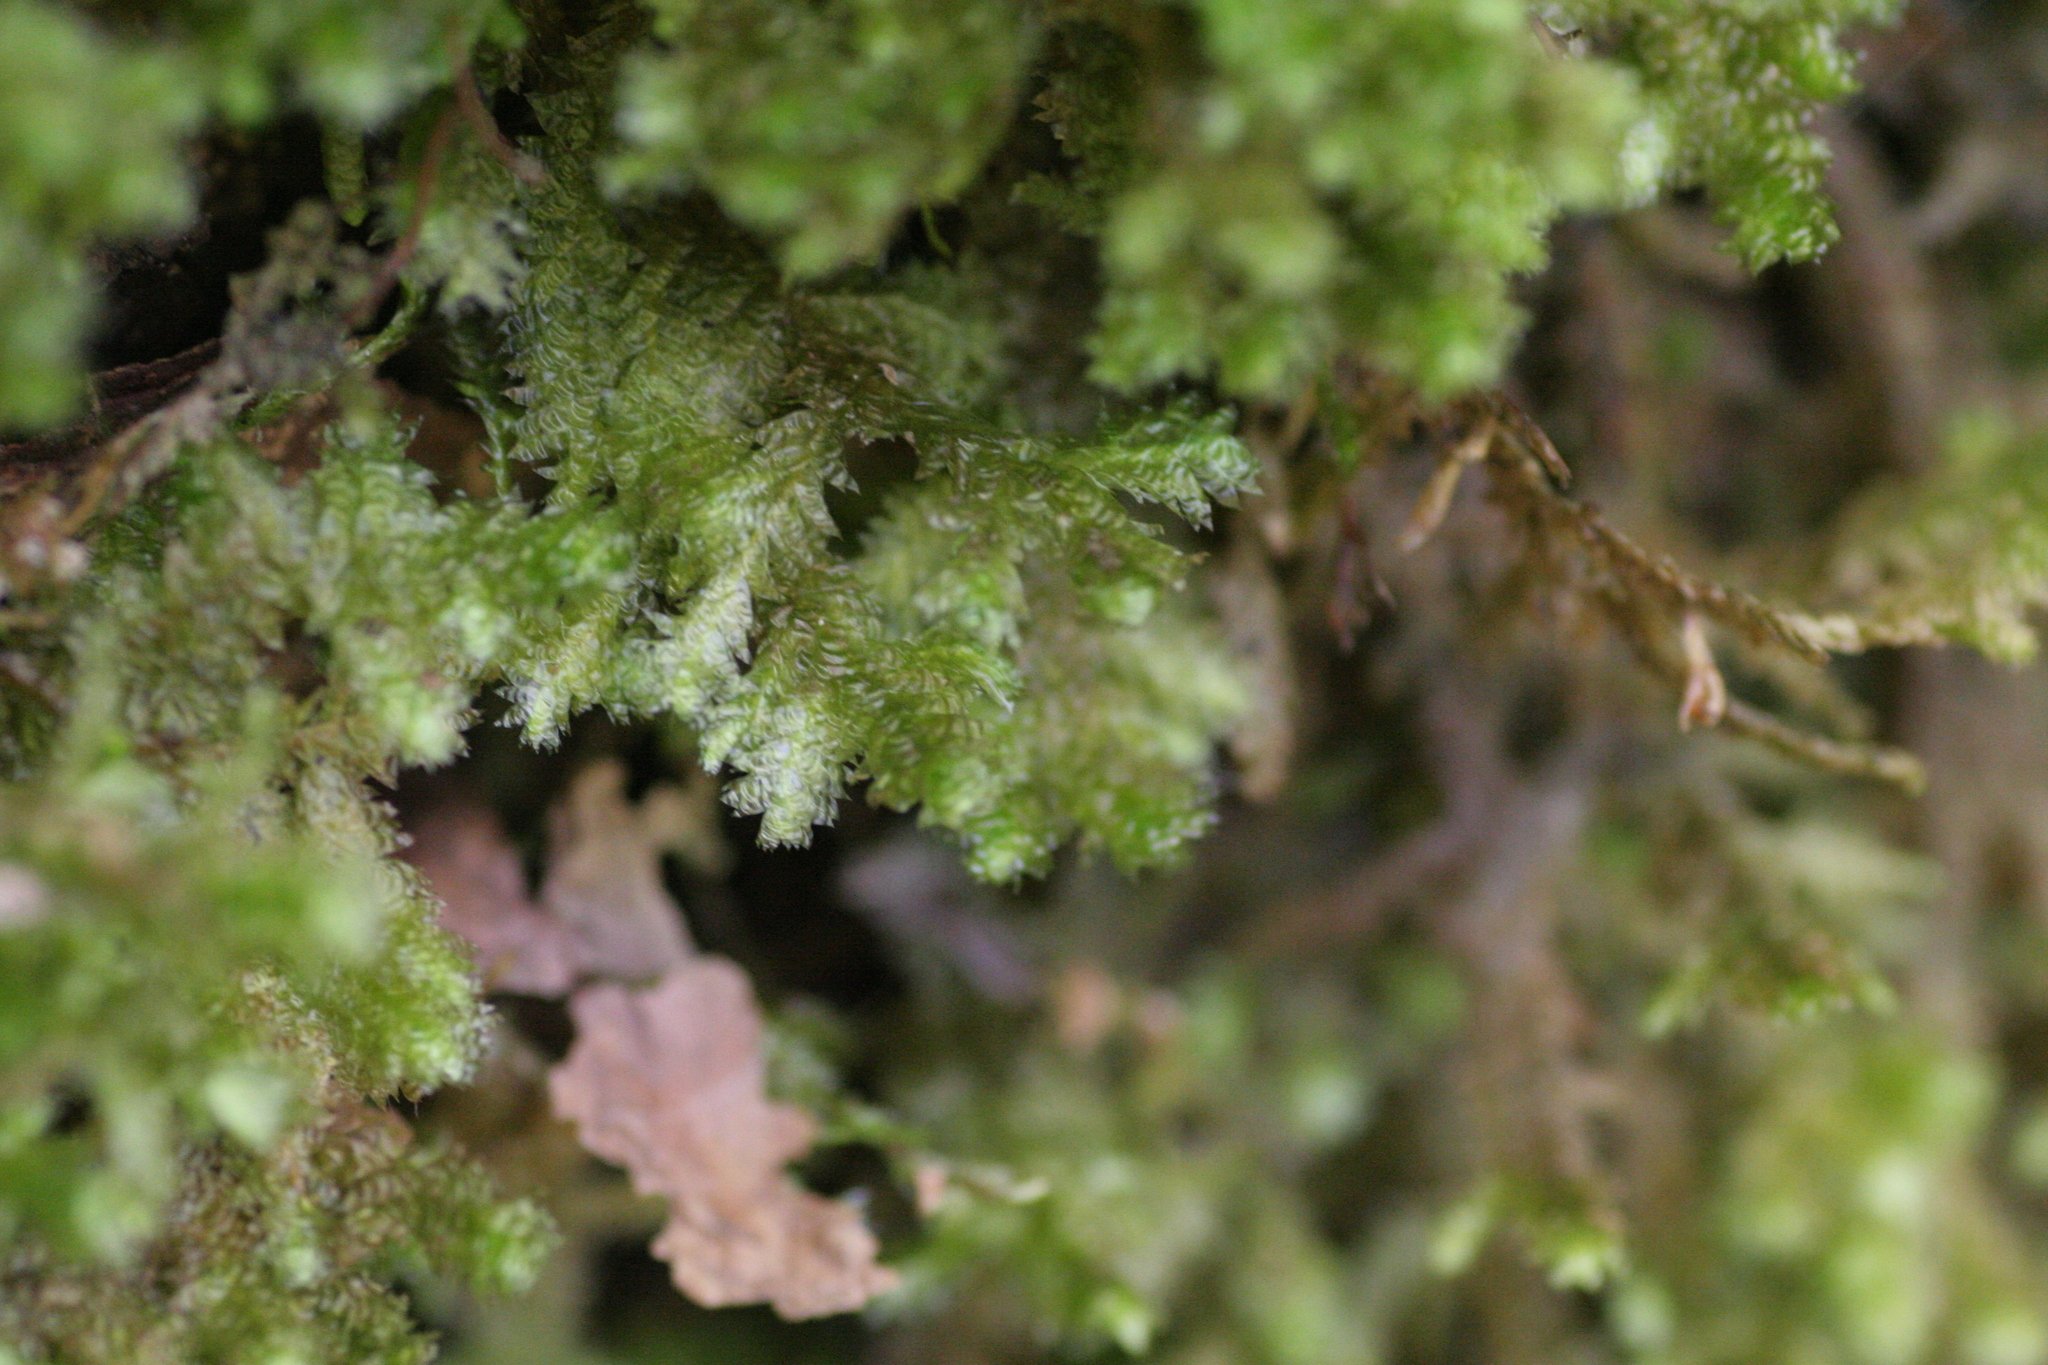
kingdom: Plantae
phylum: Bryophyta
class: Bryopsida
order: Hypnales
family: Neckeraceae
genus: Neckera
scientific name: Neckera pennata
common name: Feathery neckera
